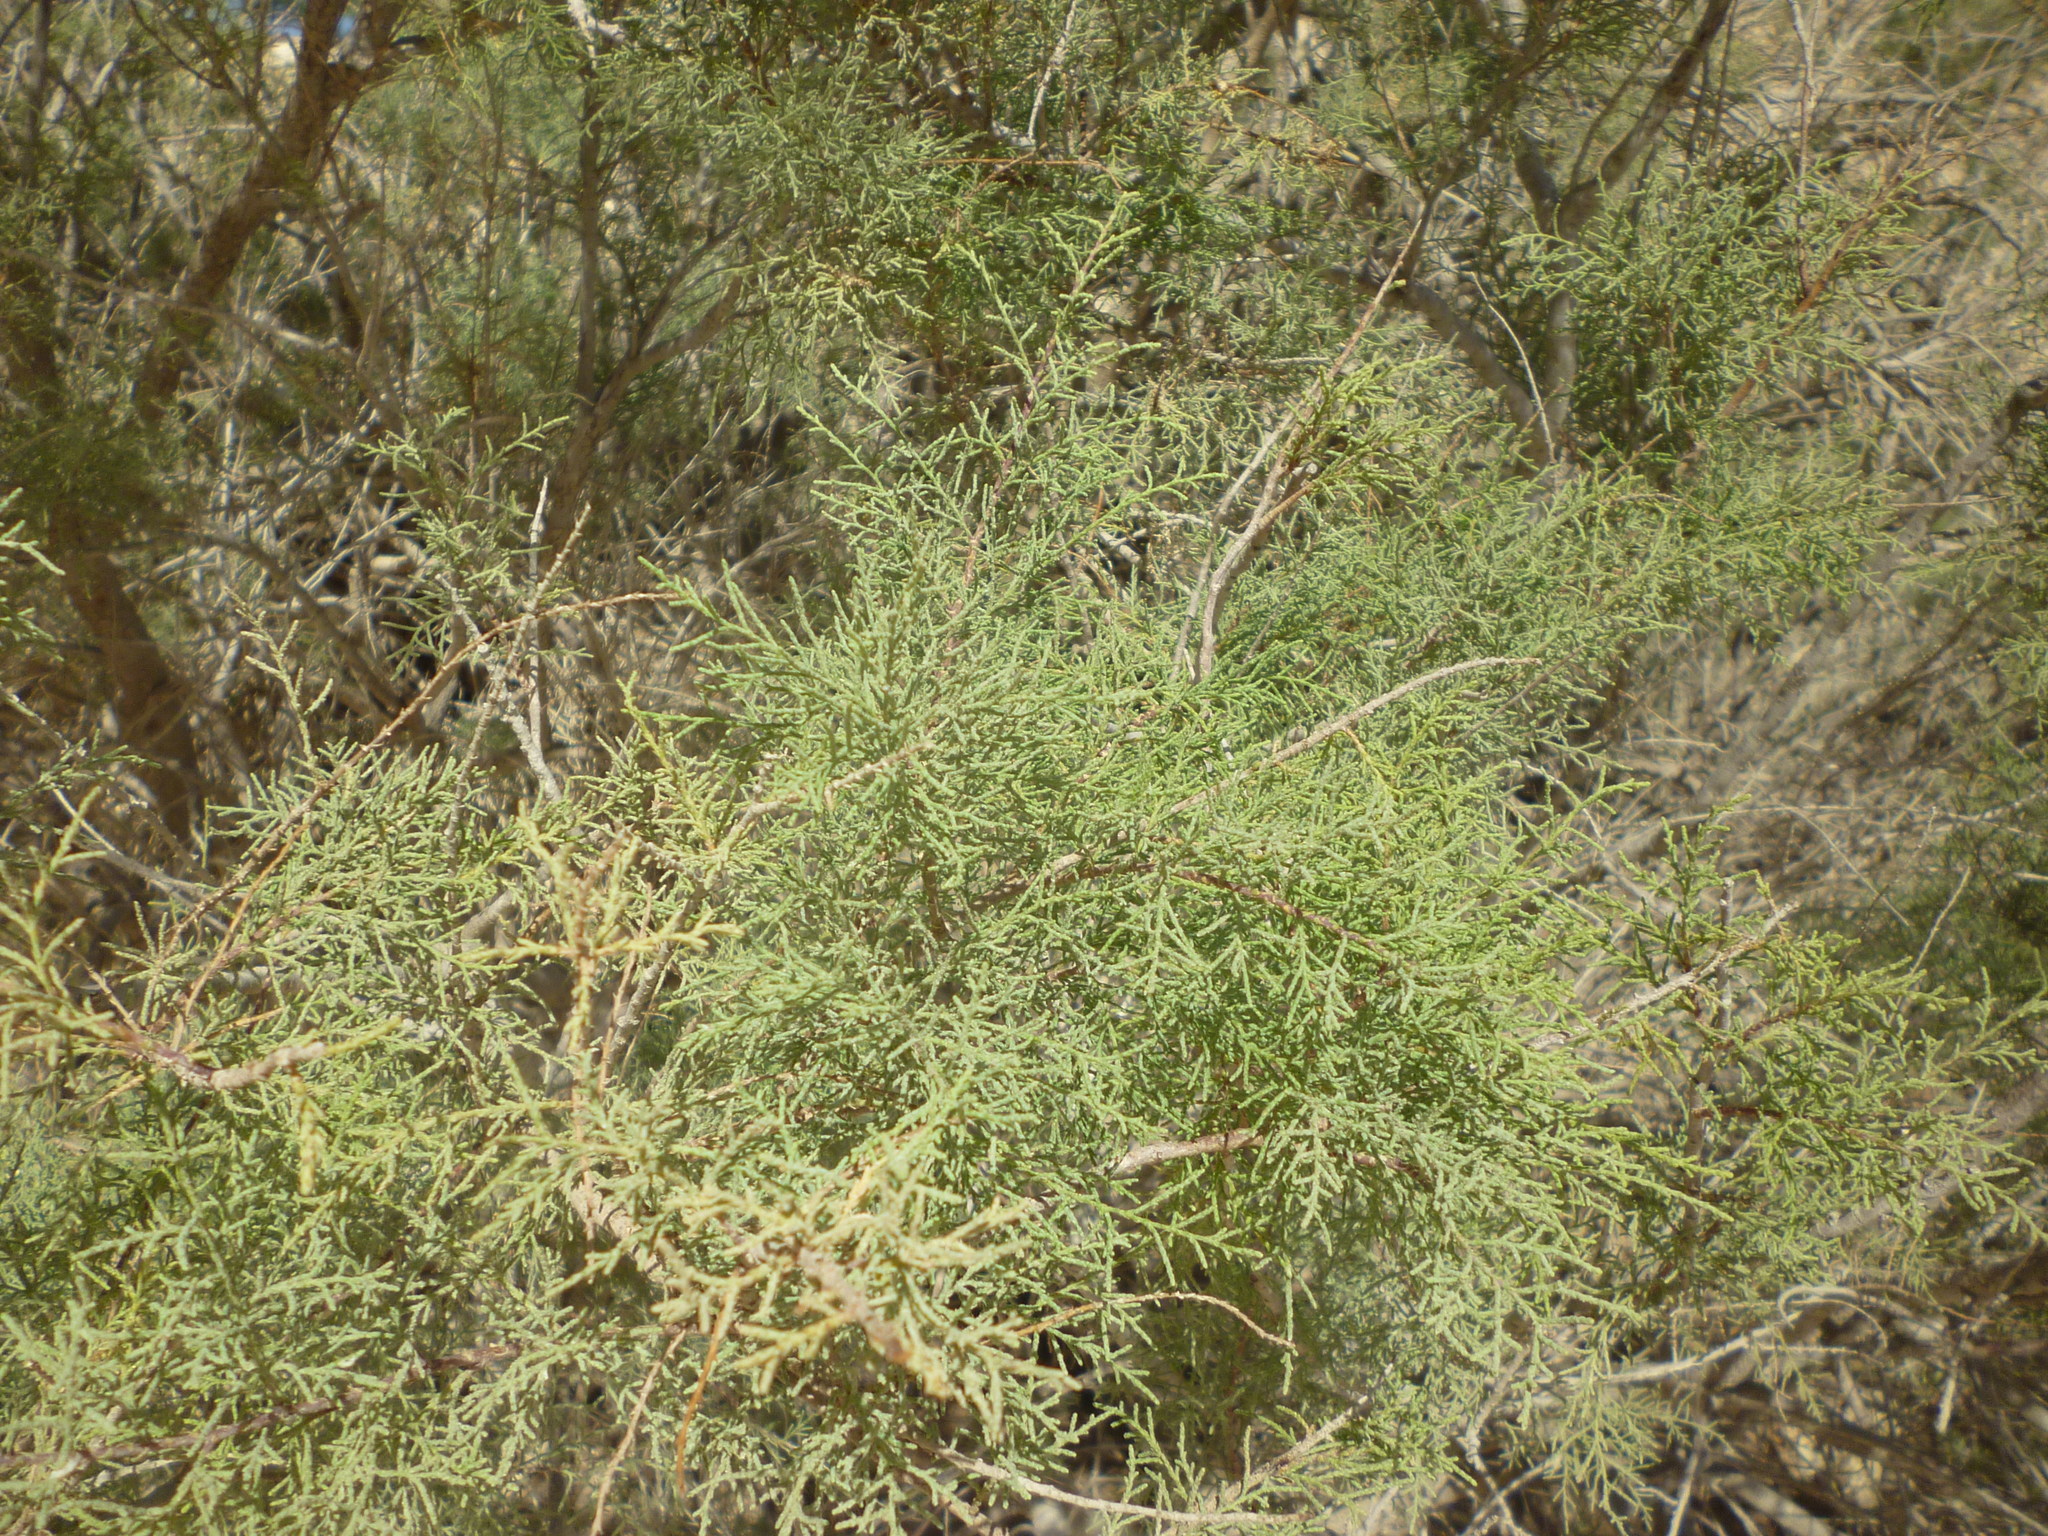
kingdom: Plantae
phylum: Tracheophyta
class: Magnoliopsida
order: Caryophyllales
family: Tamaricaceae
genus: Tamarix
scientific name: Tamarix nilotica
